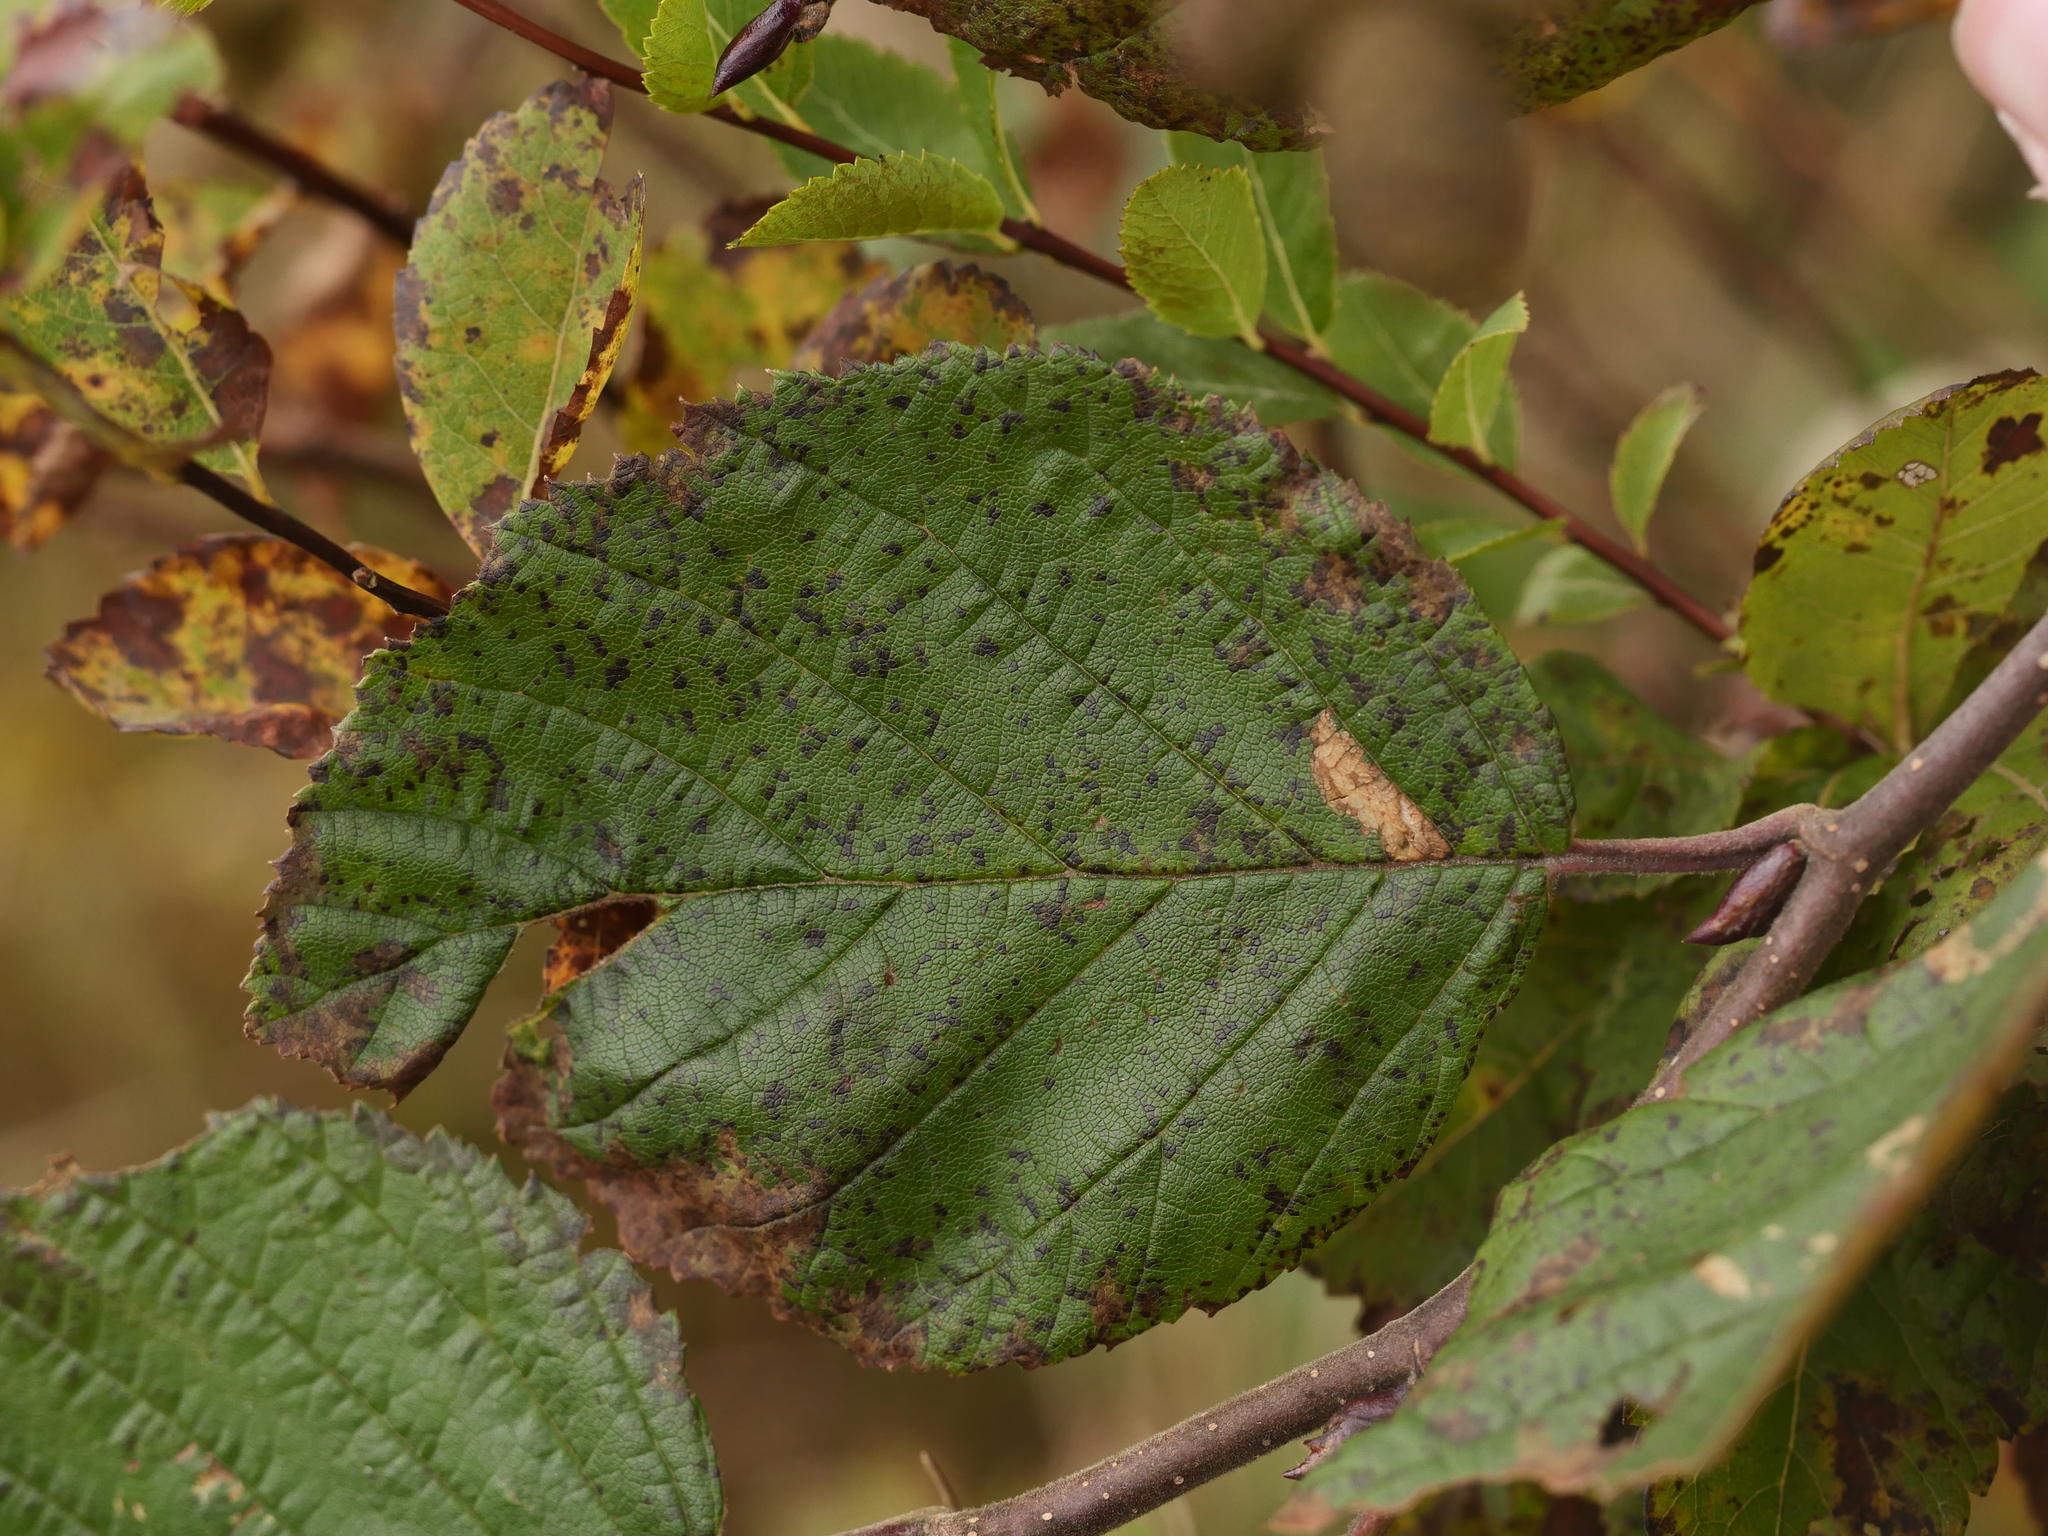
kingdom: Plantae
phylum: Tracheophyta
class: Magnoliopsida
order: Fagales
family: Betulaceae
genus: Alnus
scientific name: Alnus alnobetula
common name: Green alder
